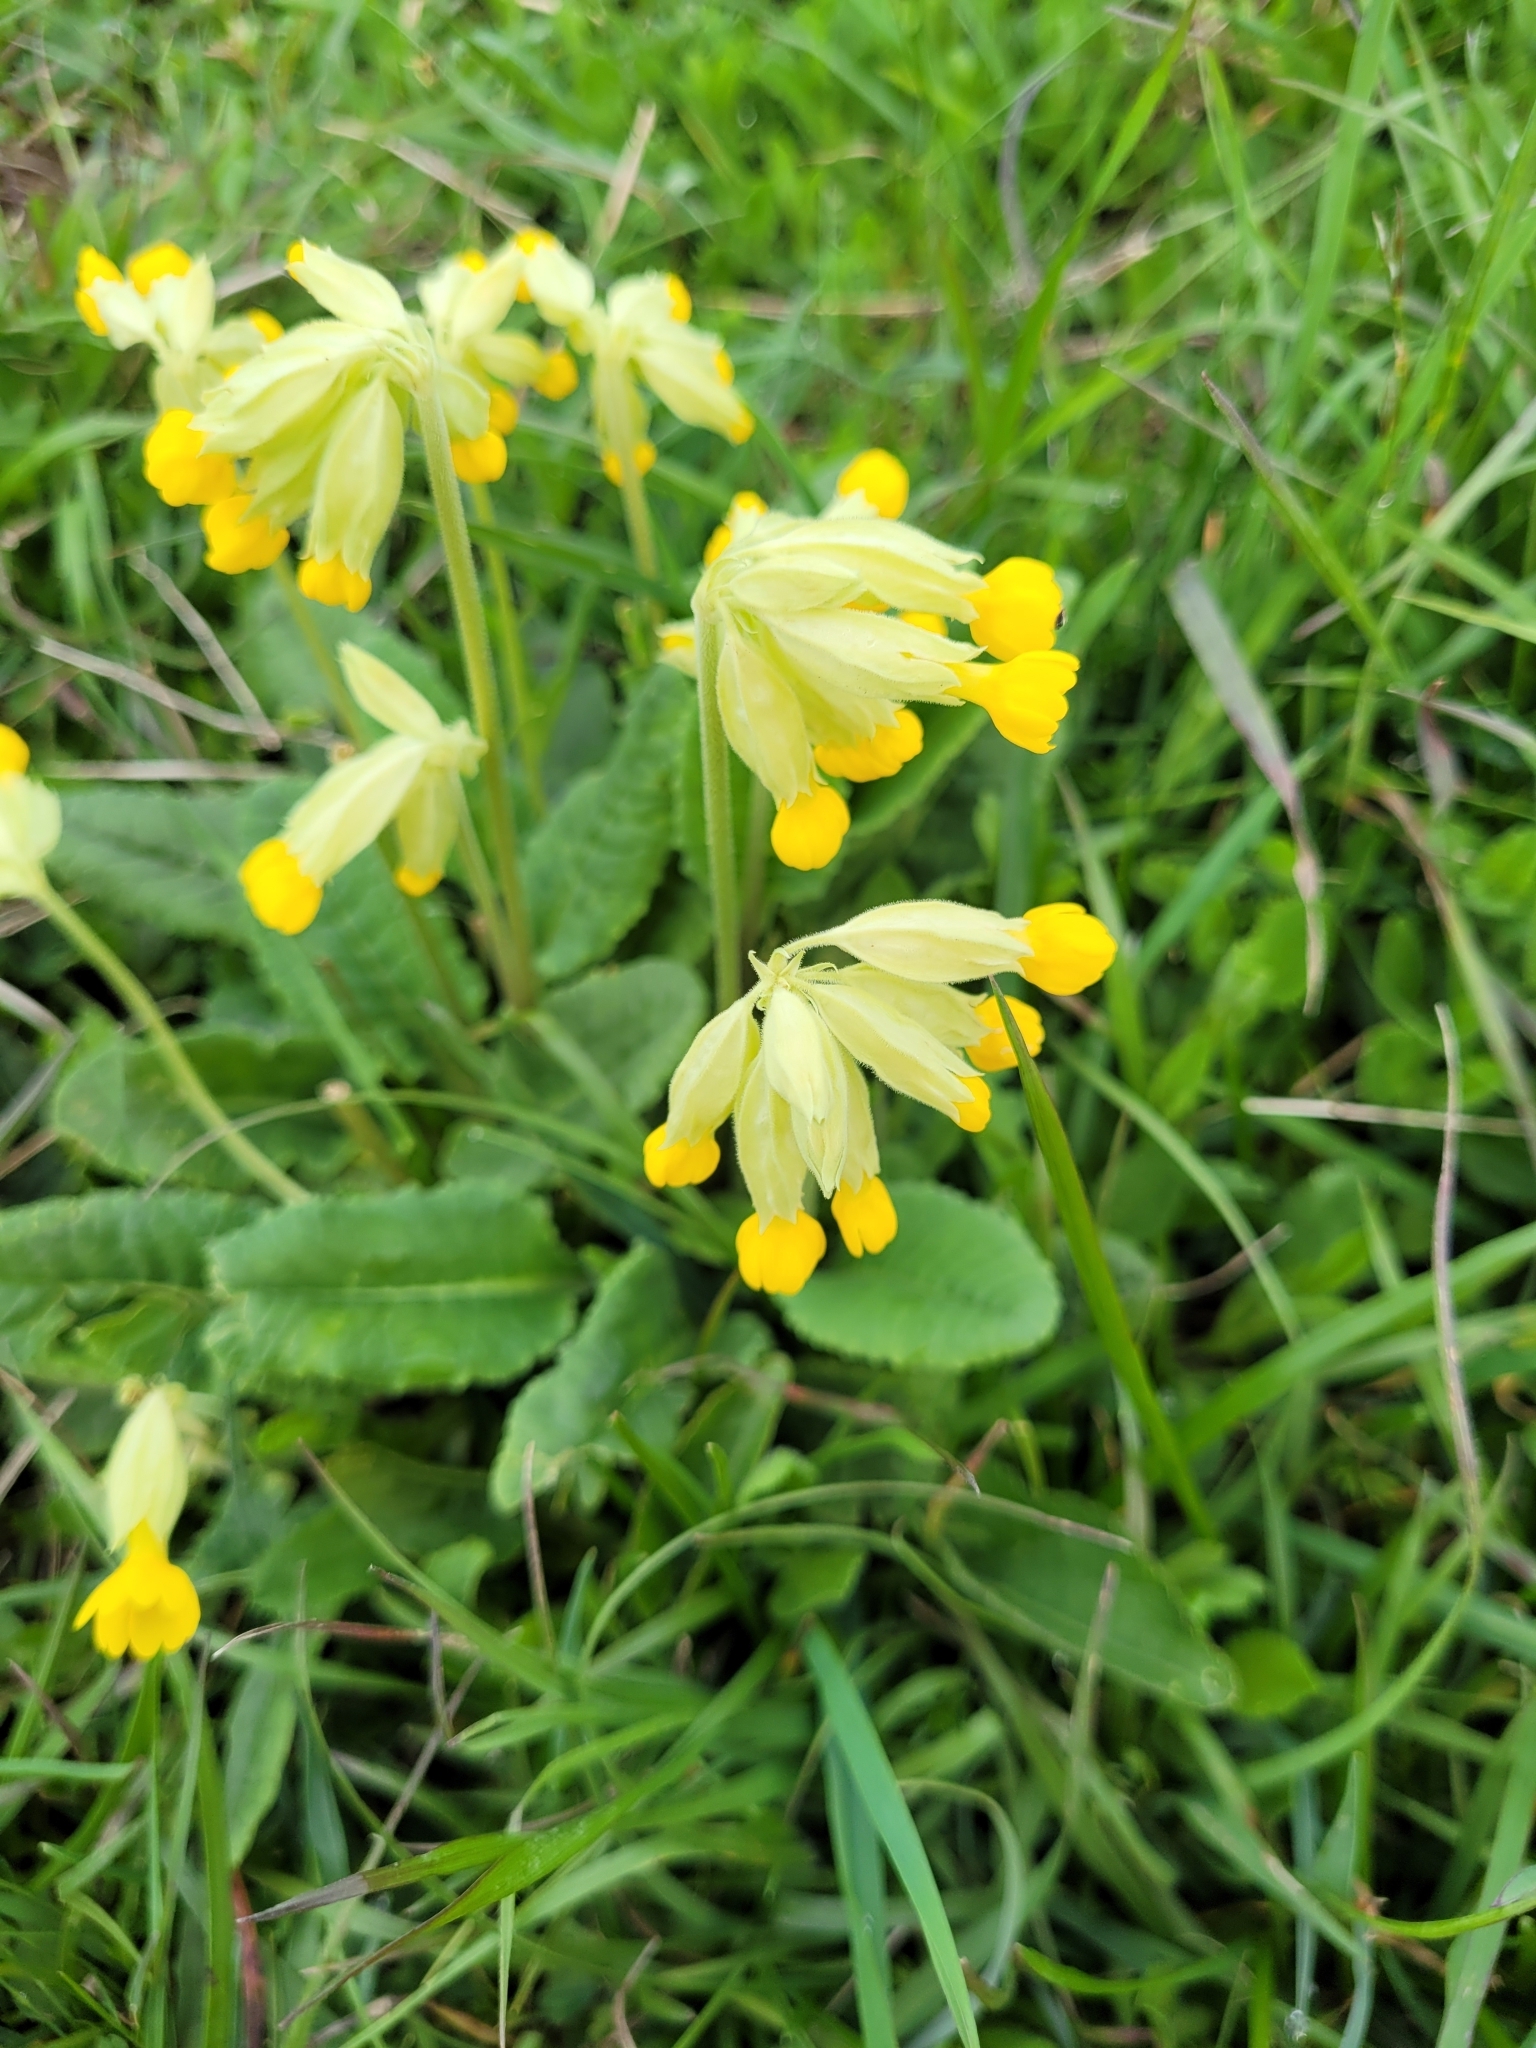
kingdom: Plantae
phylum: Tracheophyta
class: Magnoliopsida
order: Ericales
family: Primulaceae
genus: Primula
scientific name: Primula veris
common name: Cowslip
